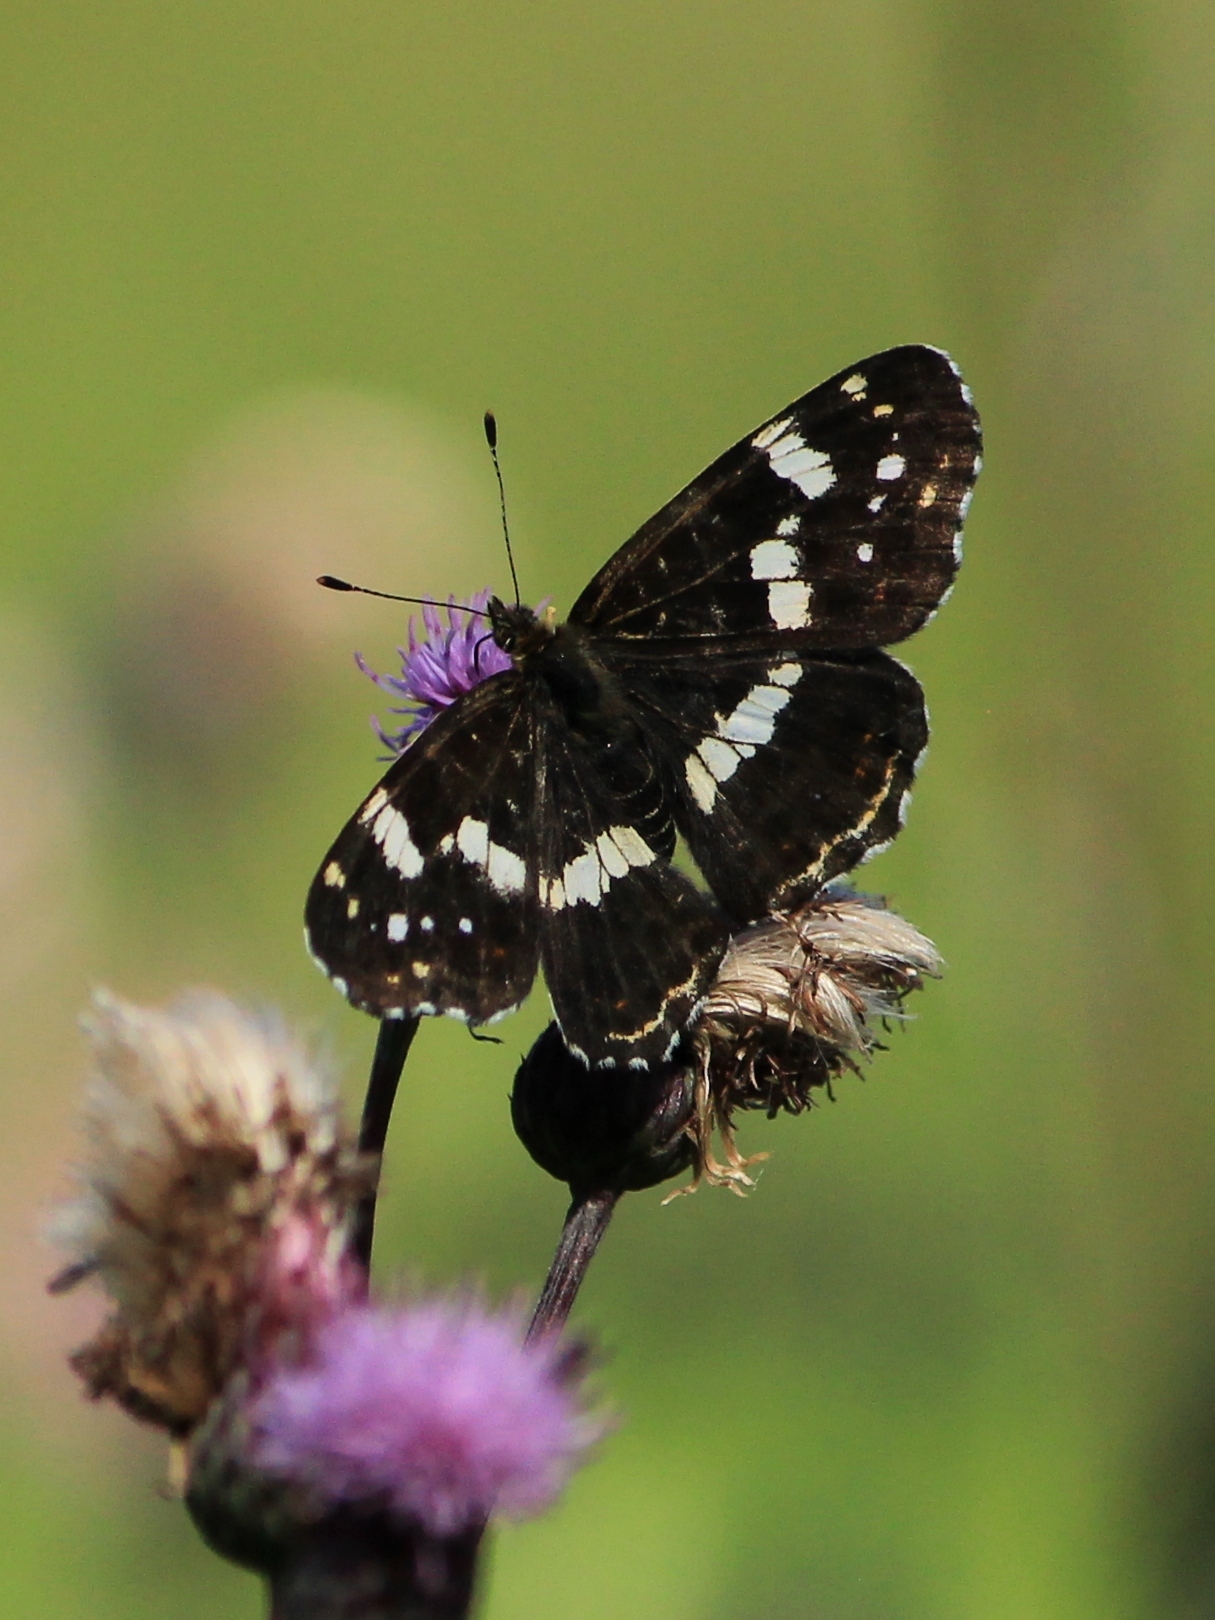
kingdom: Animalia
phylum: Arthropoda
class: Insecta
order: Lepidoptera
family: Nymphalidae
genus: Araschnia
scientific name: Araschnia levana
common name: Map butterfly
